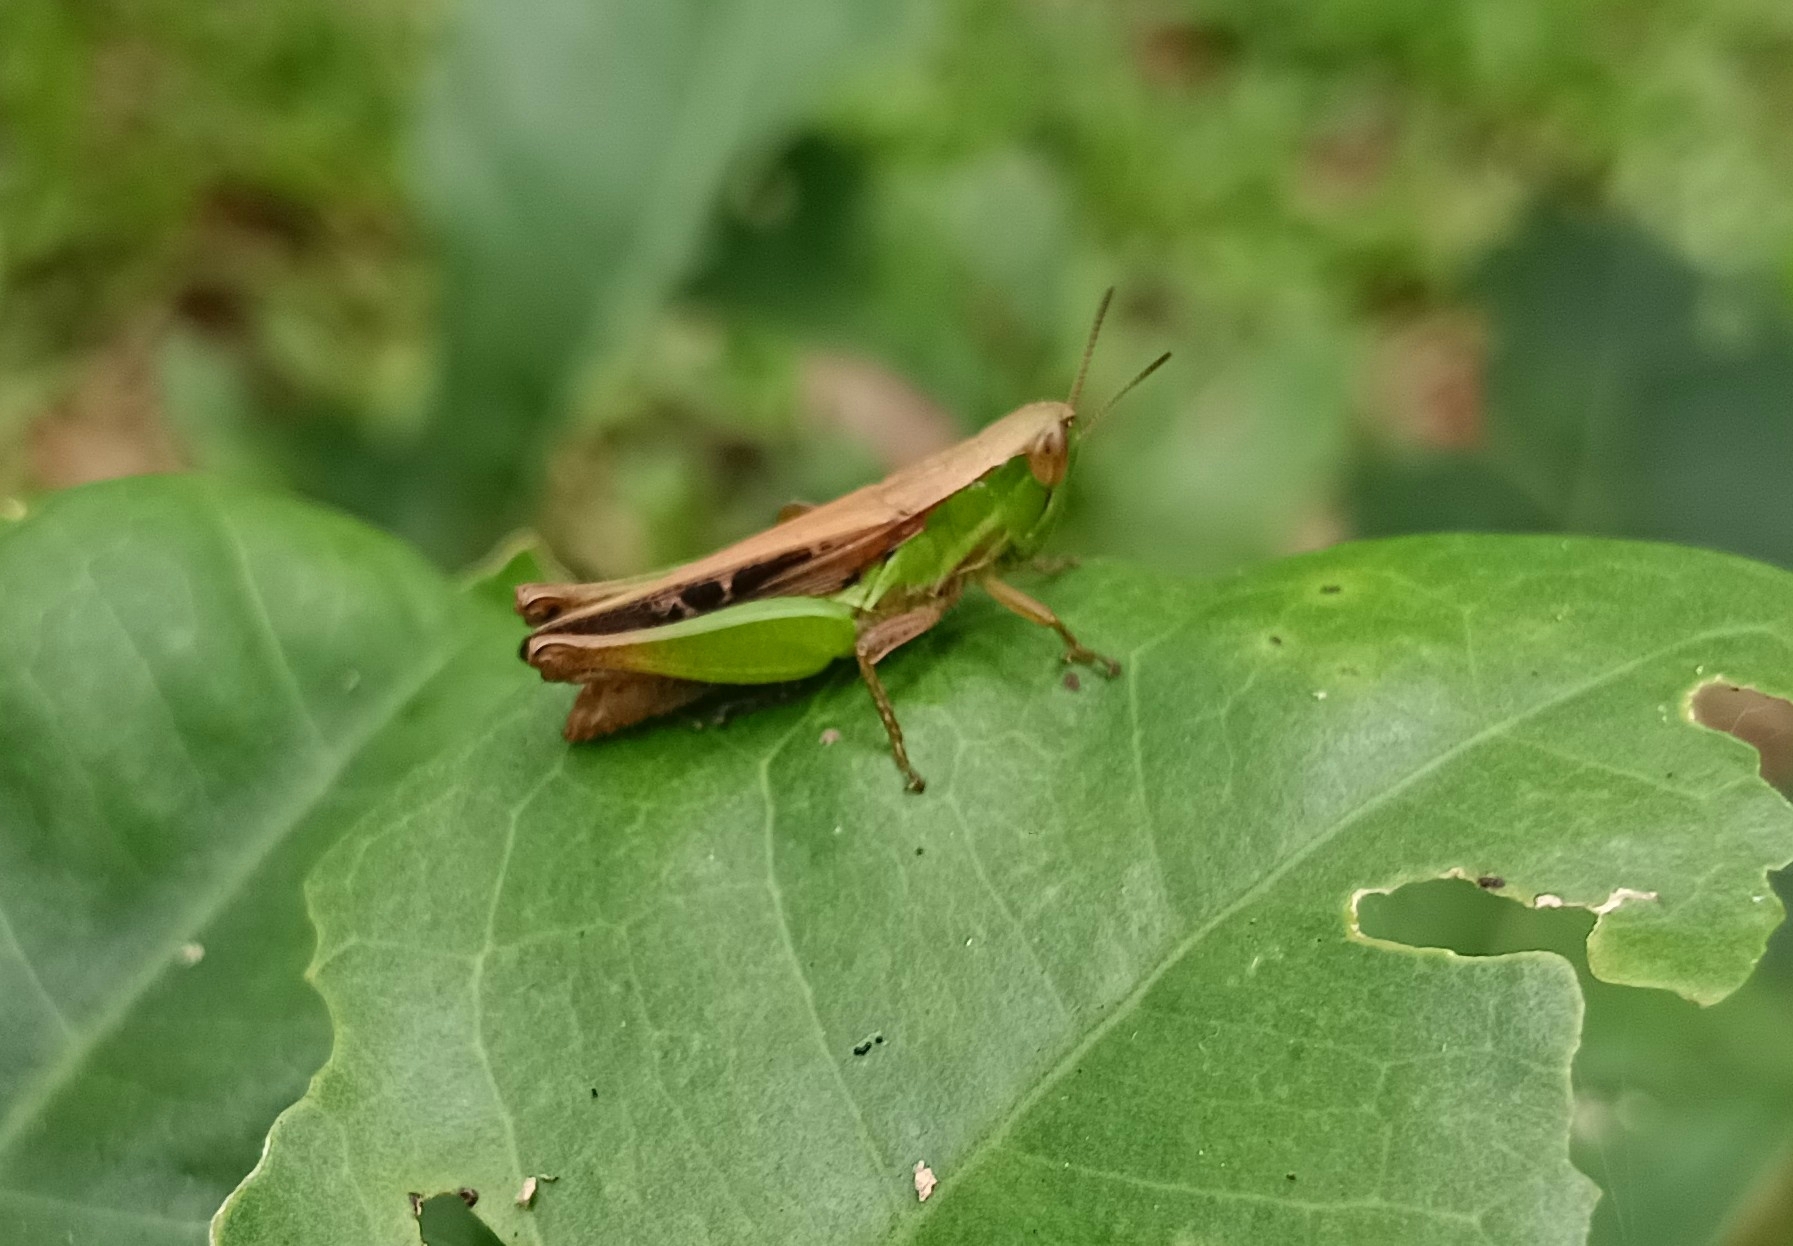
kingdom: Animalia
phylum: Arthropoda
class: Insecta
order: Orthoptera
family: Acrididae
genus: Spathosternum
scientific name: Spathosternum prasiniferum
